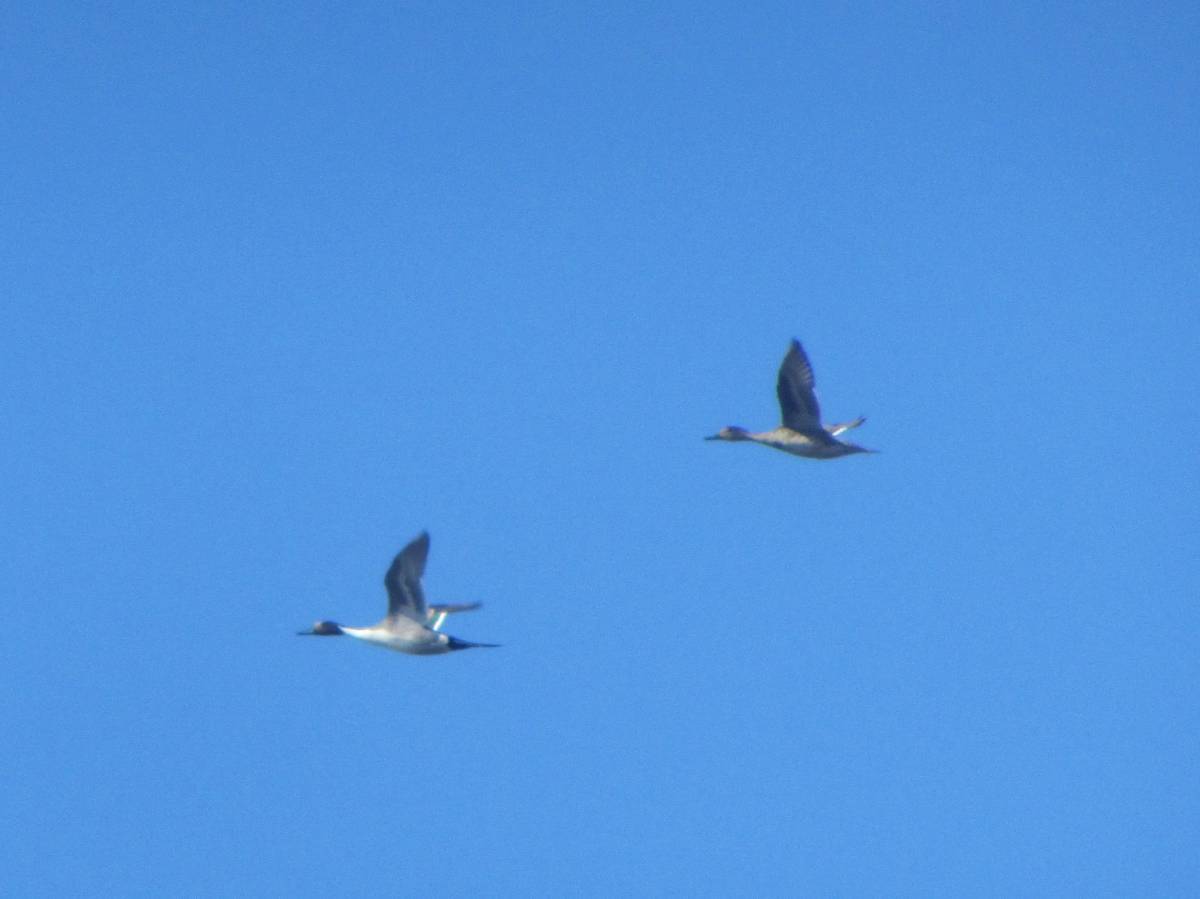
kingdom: Animalia
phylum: Chordata
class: Aves
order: Anseriformes
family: Anatidae
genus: Anas
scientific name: Anas acuta
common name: Northern pintail
